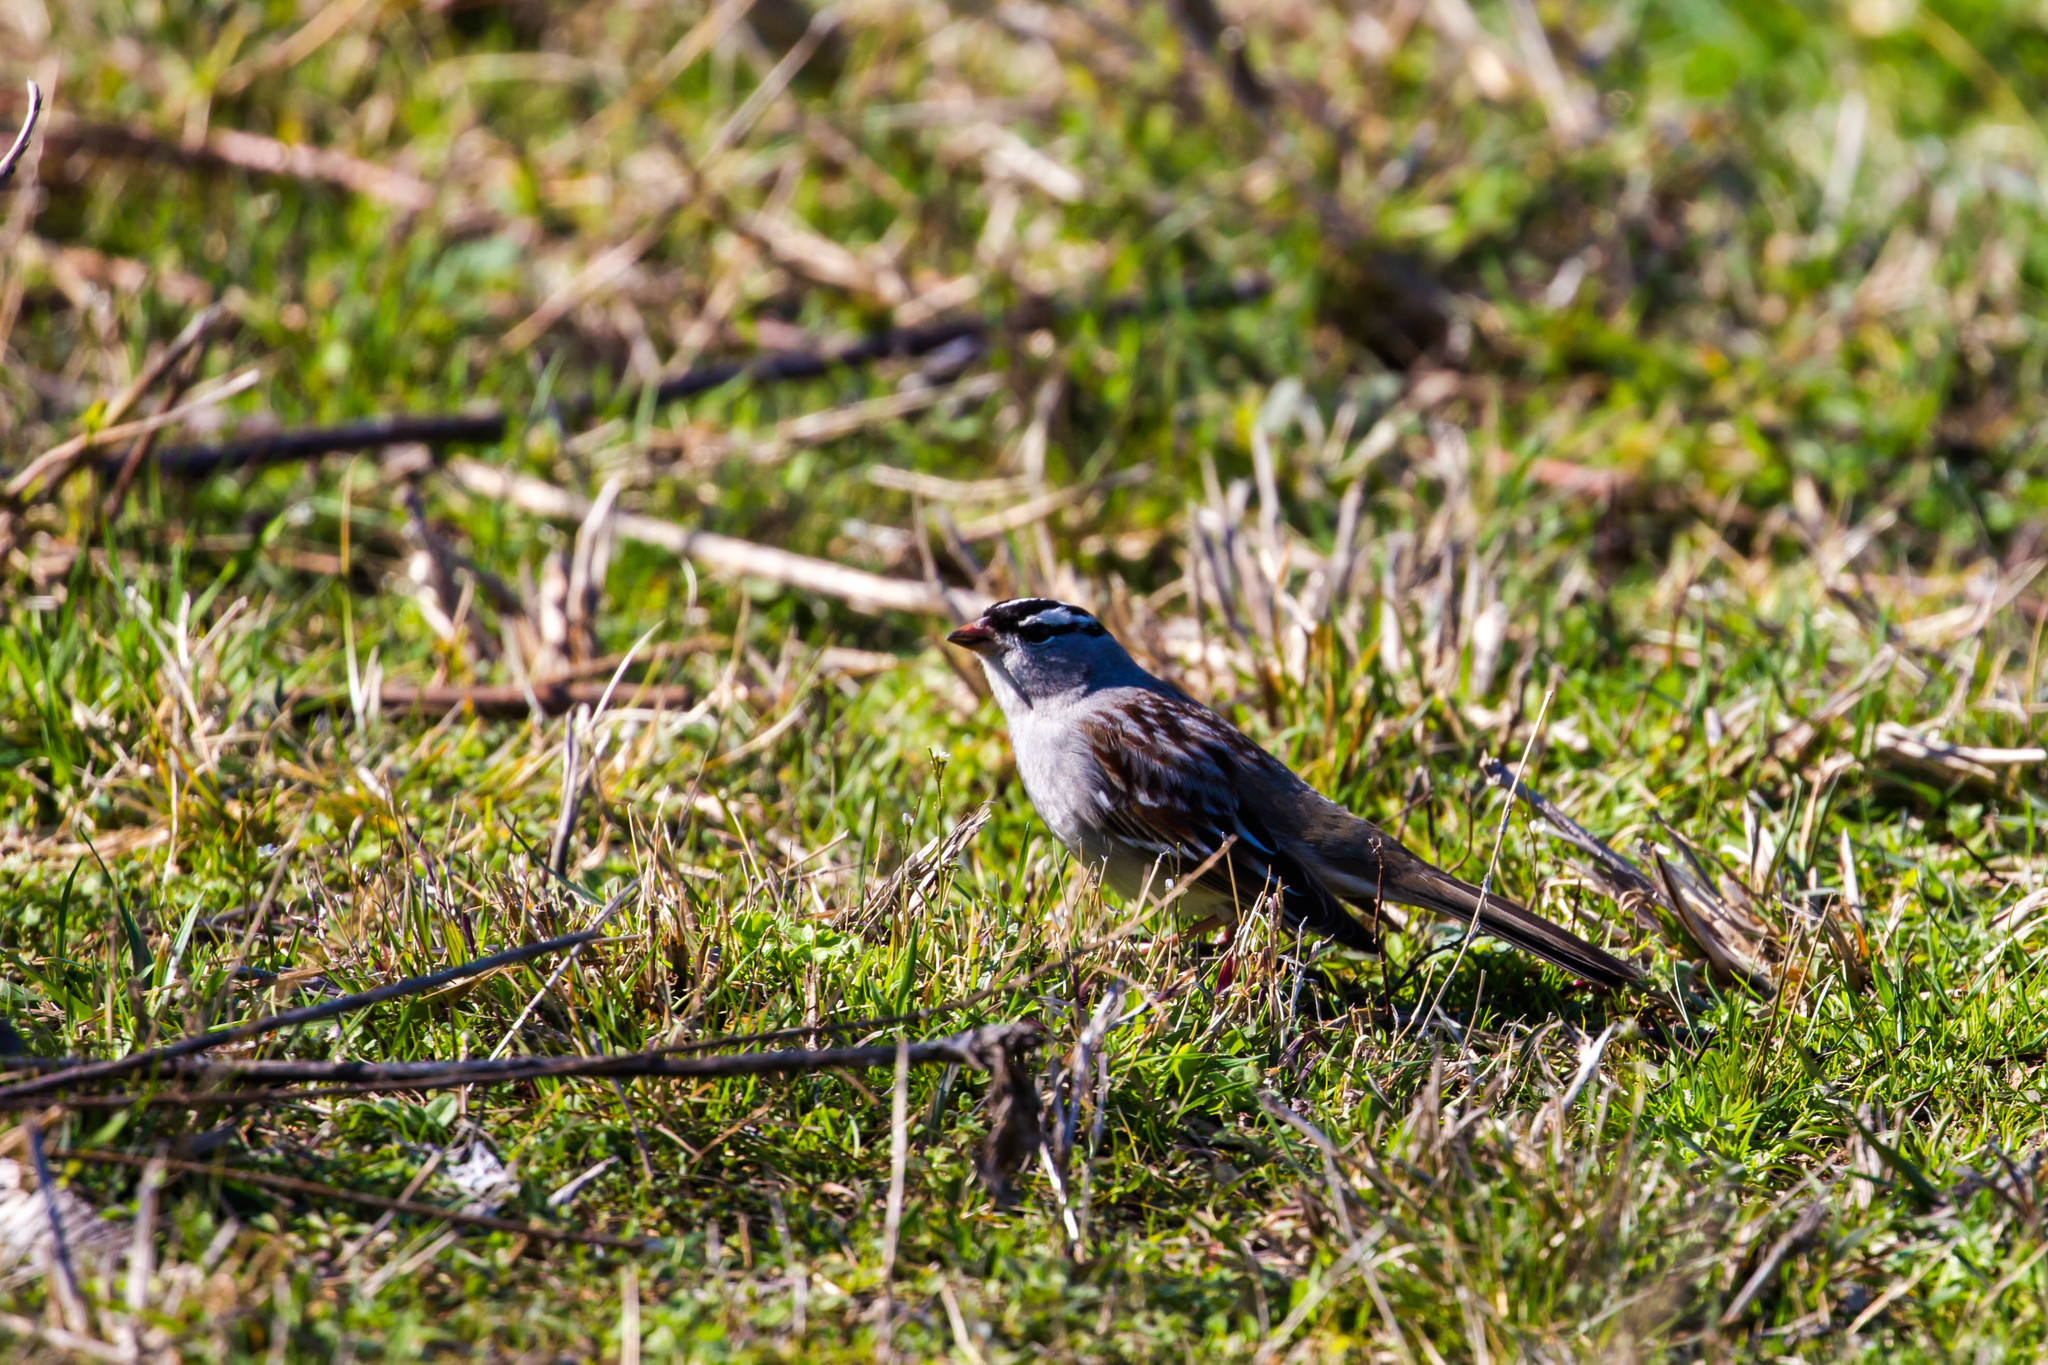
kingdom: Animalia
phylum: Chordata
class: Aves
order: Passeriformes
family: Passerellidae
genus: Zonotrichia
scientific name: Zonotrichia leucophrys
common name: White-crowned sparrow
